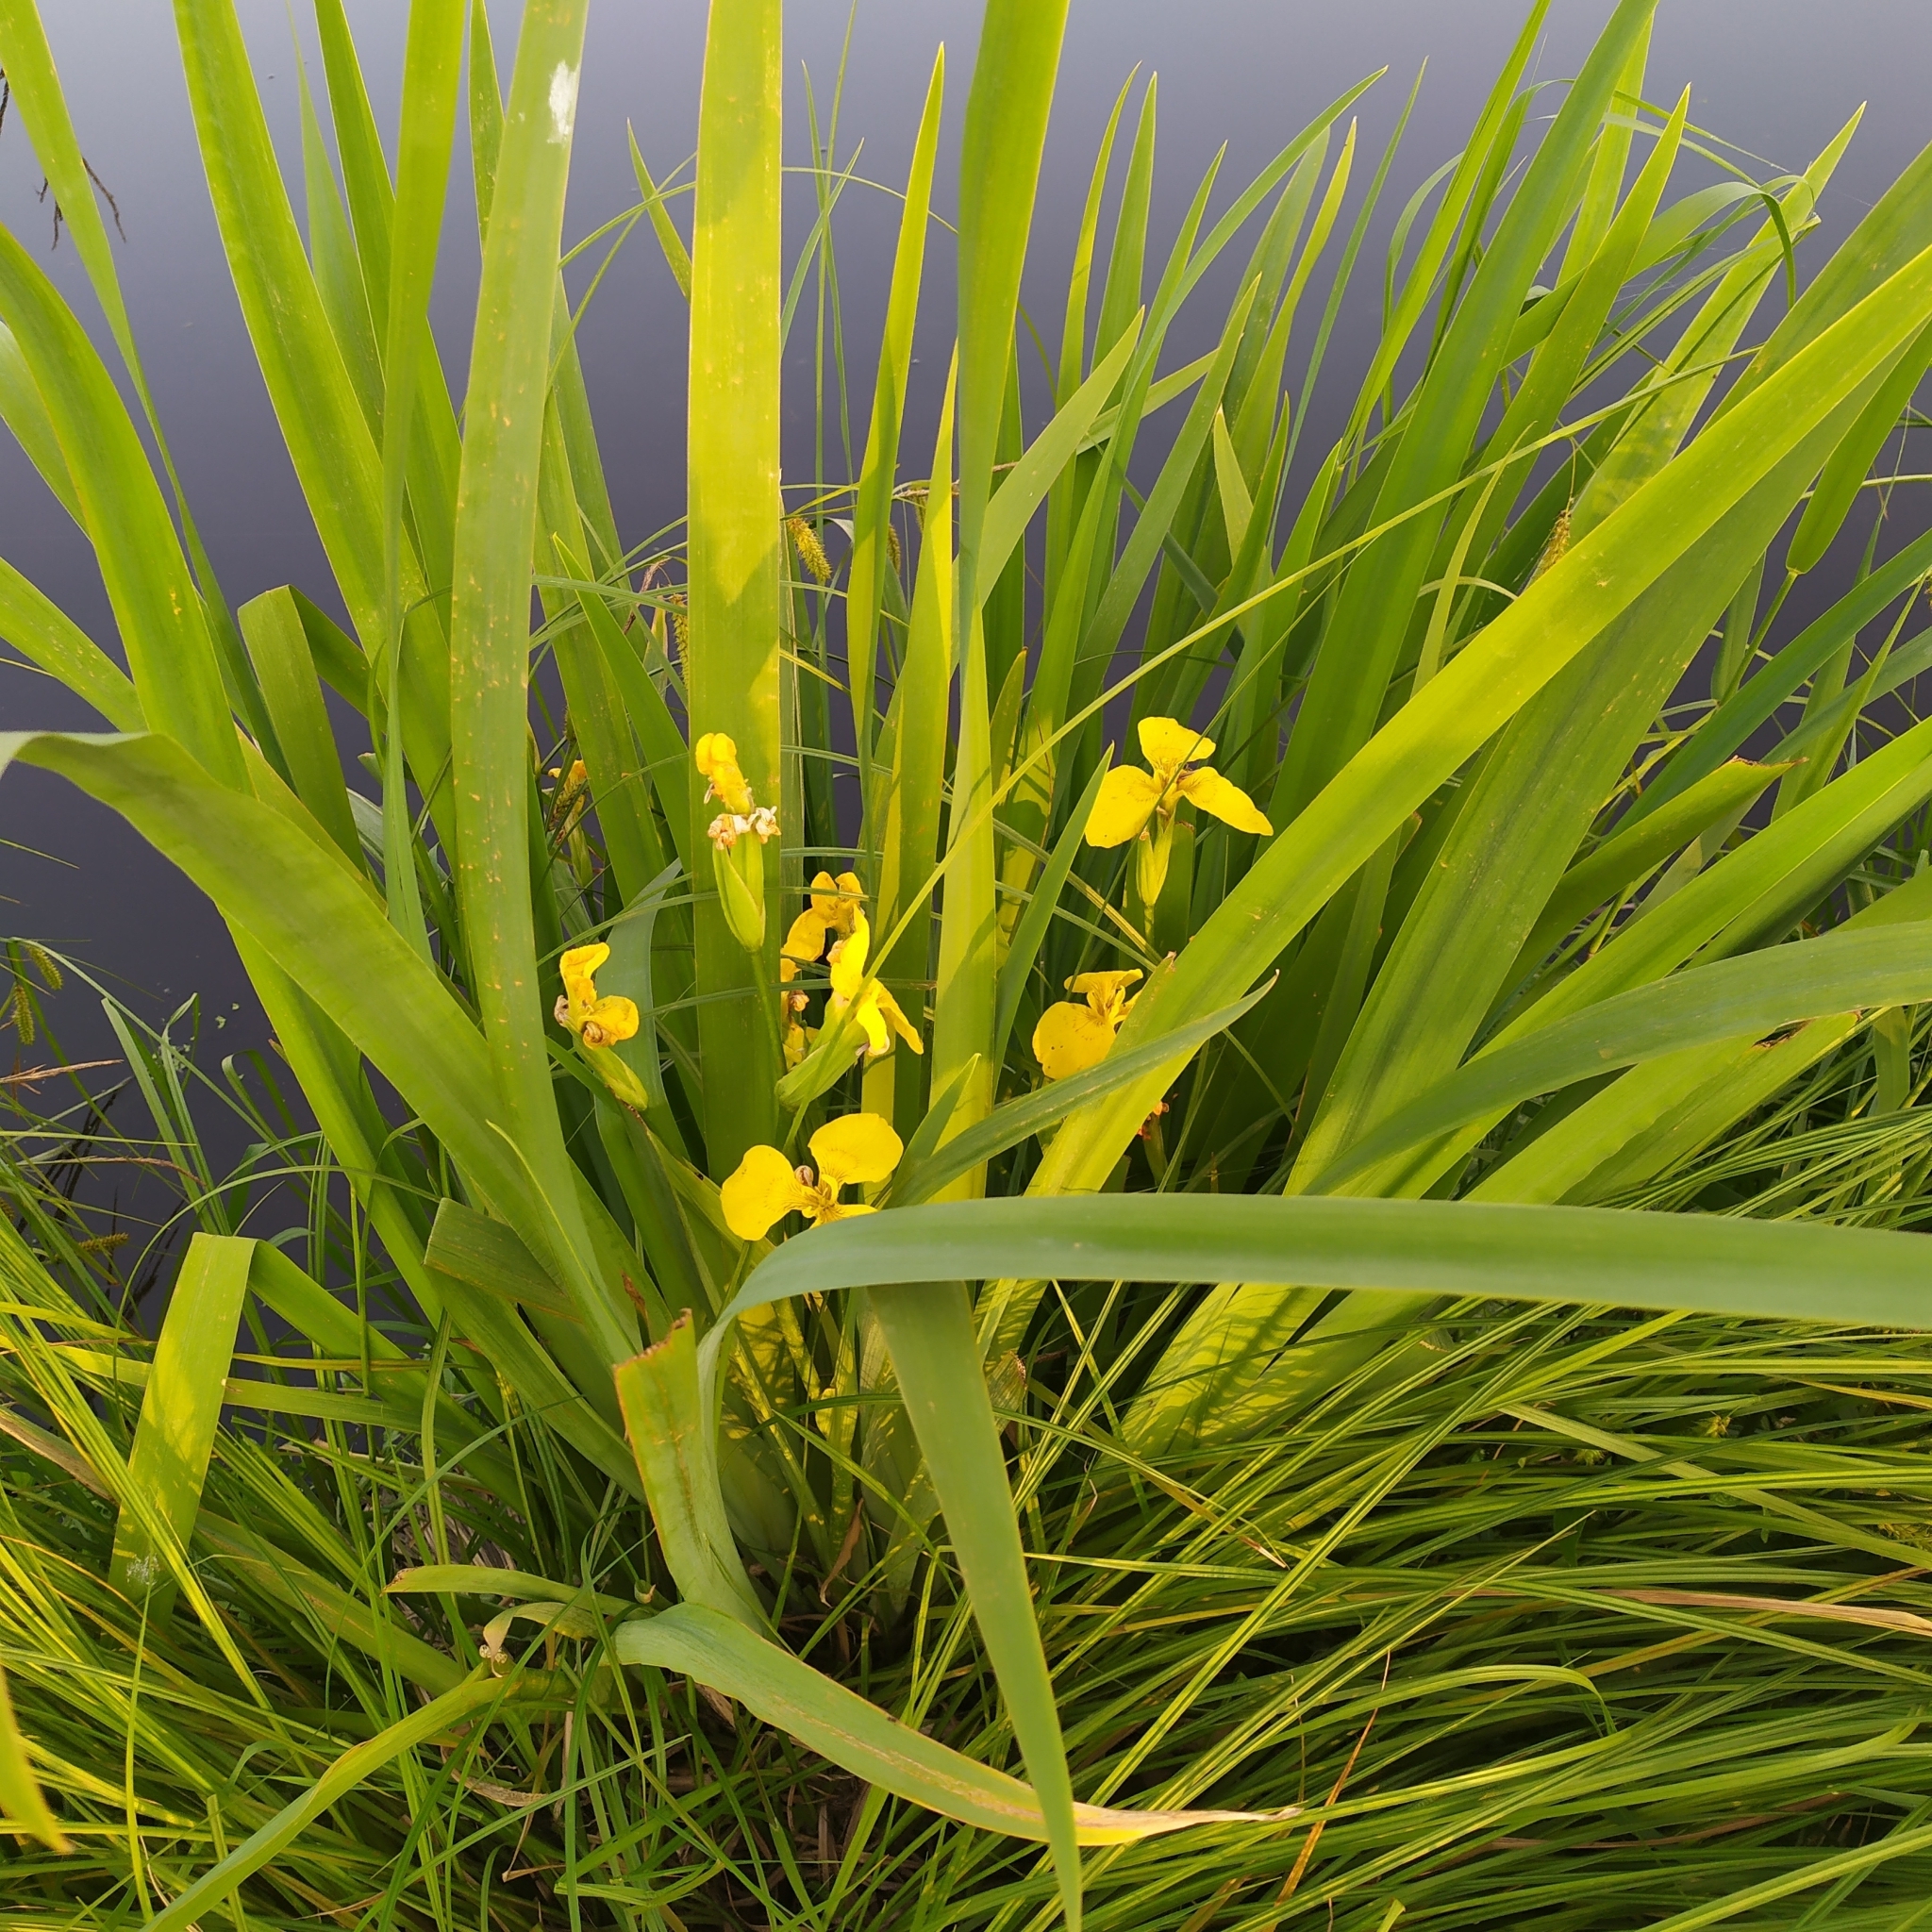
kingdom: Plantae
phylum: Tracheophyta
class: Liliopsida
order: Asparagales
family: Iridaceae
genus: Iris
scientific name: Iris pseudacorus
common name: Yellow flag
